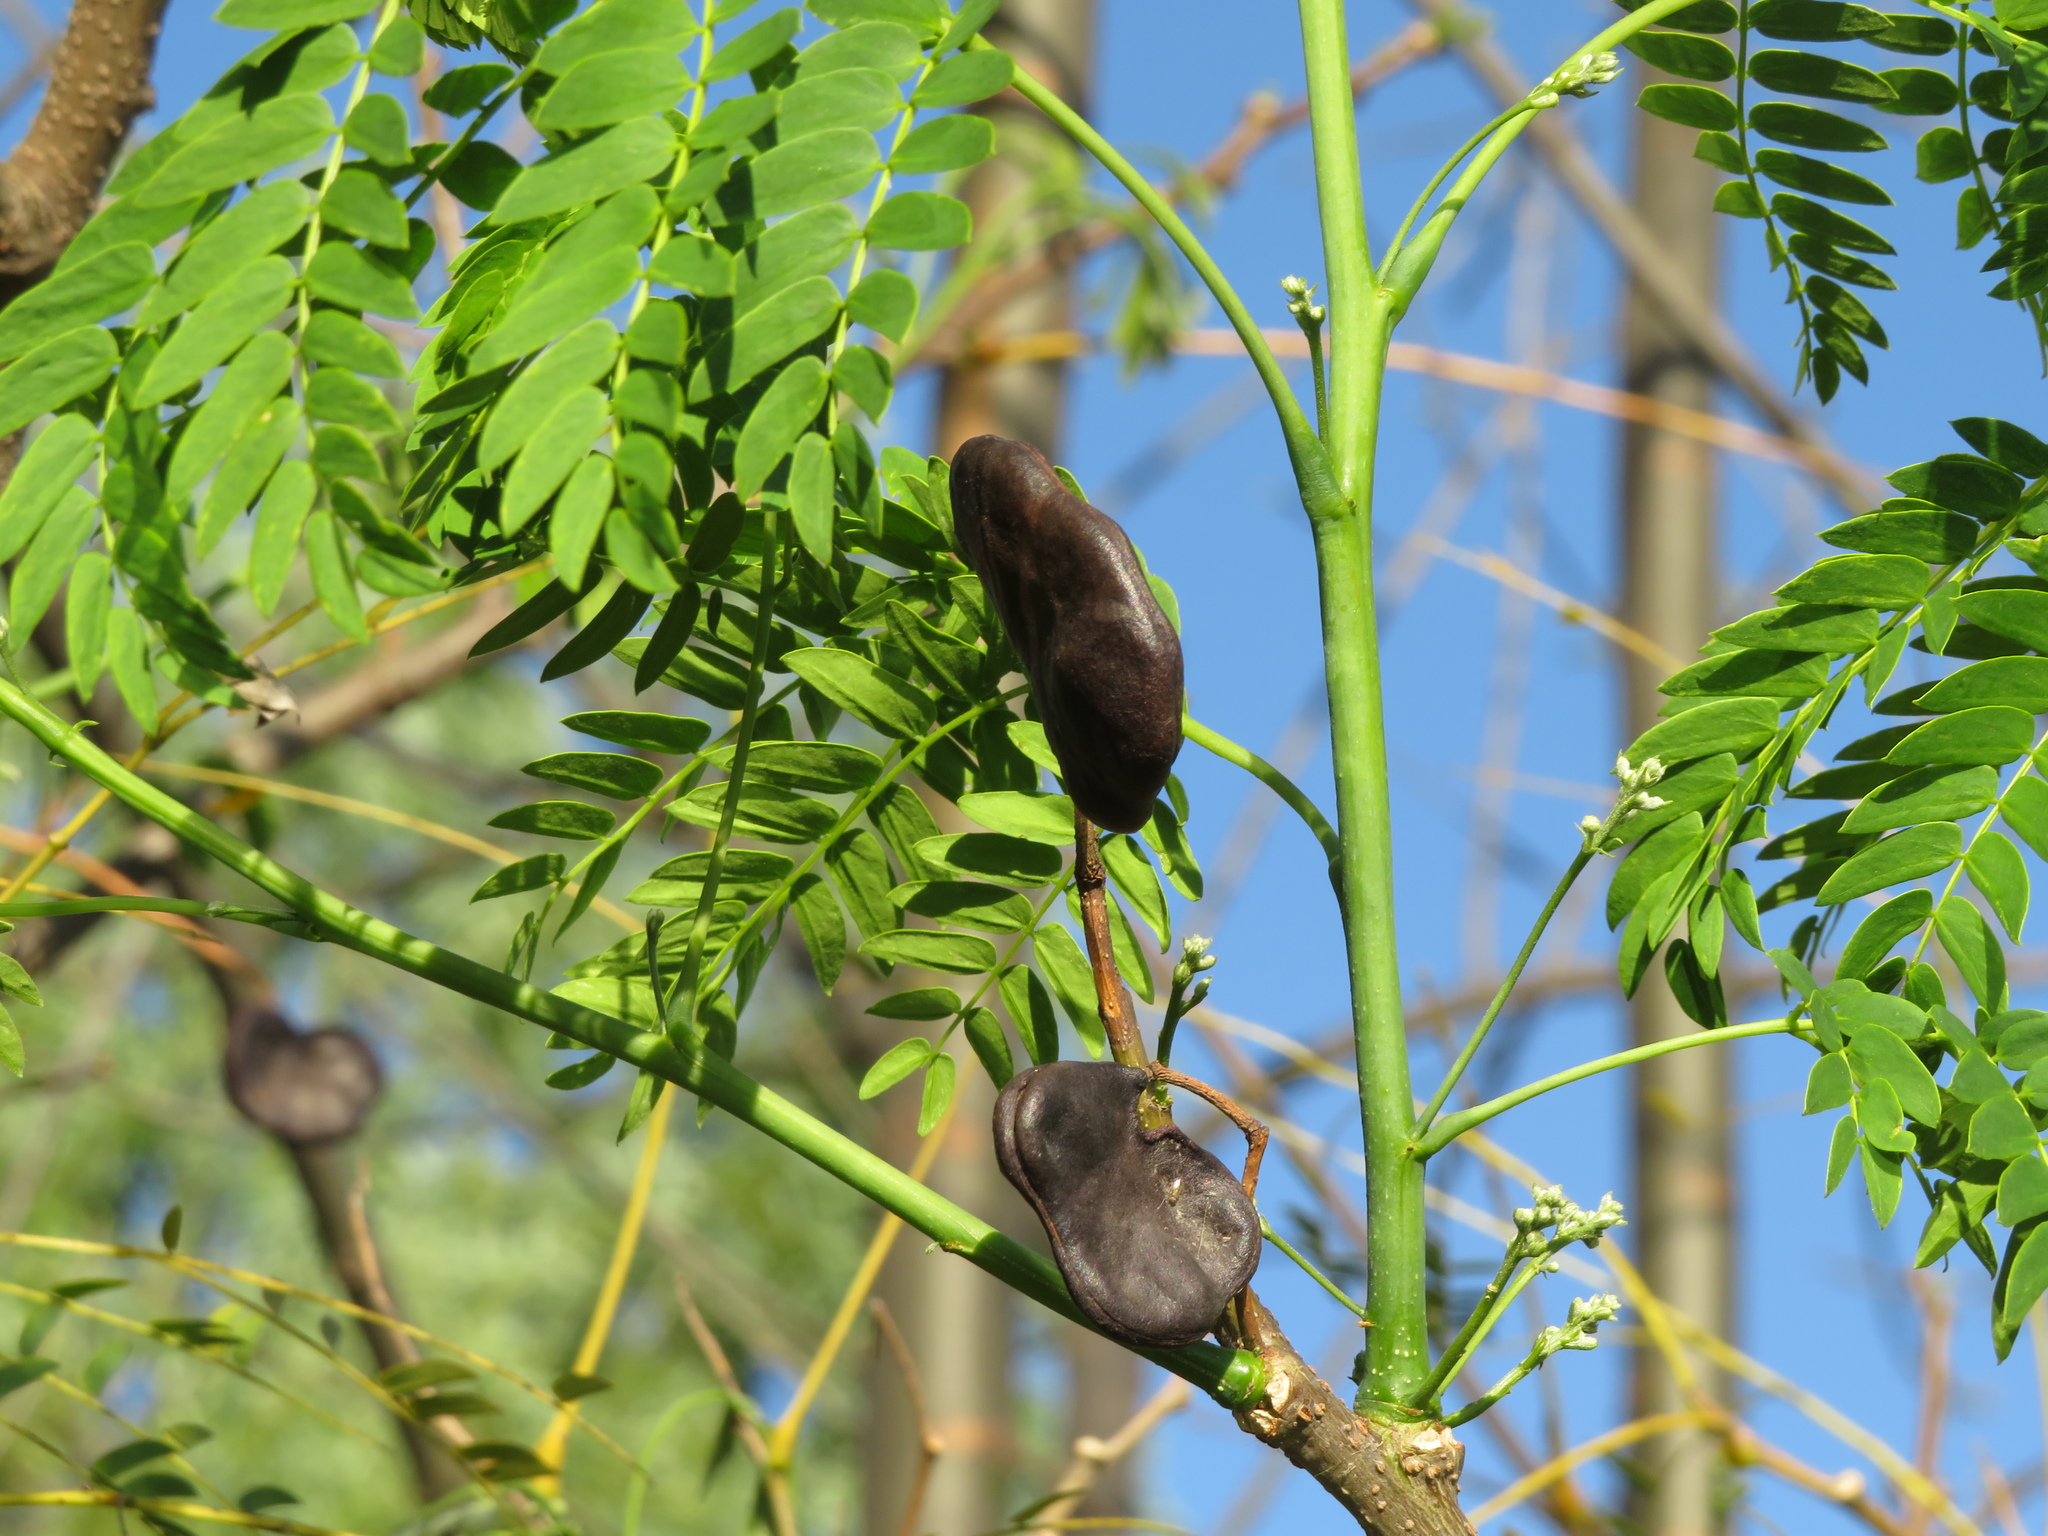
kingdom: Plantae
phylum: Tracheophyta
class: Magnoliopsida
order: Fabales
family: Fabaceae
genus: Enterolobium
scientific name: Enterolobium contortisiliquum
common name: Pacara earpod tree
